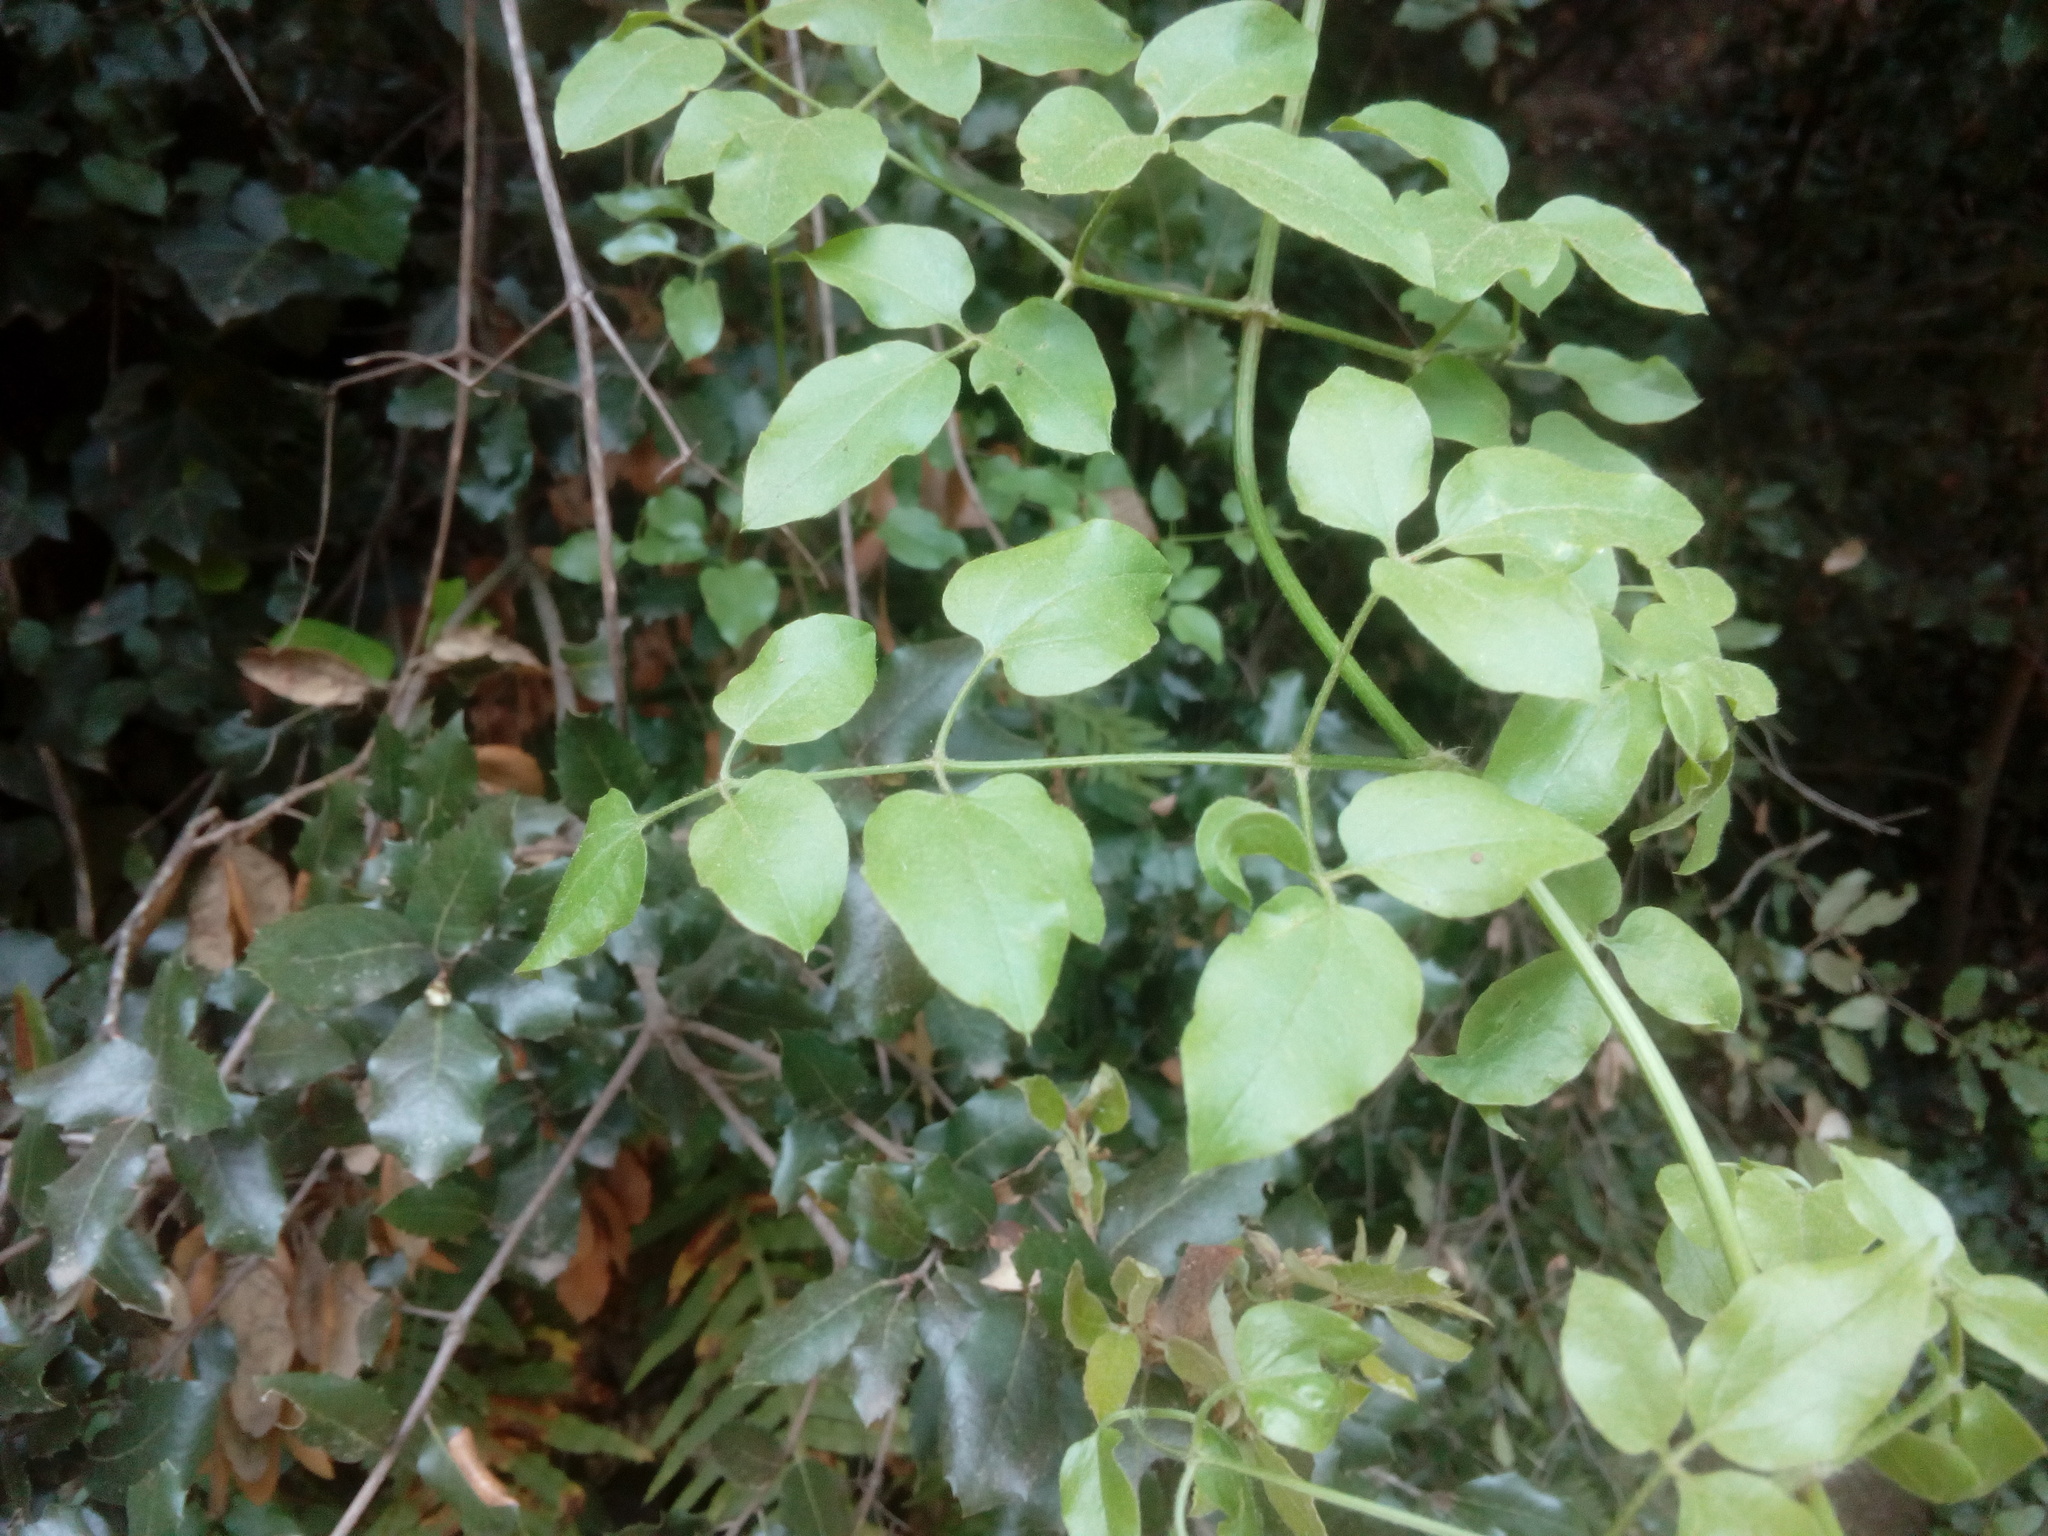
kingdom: Plantae
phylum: Tracheophyta
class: Magnoliopsida
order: Ranunculales
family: Ranunculaceae
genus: Clematis
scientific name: Clematis flammula
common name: Virgin's-bower
